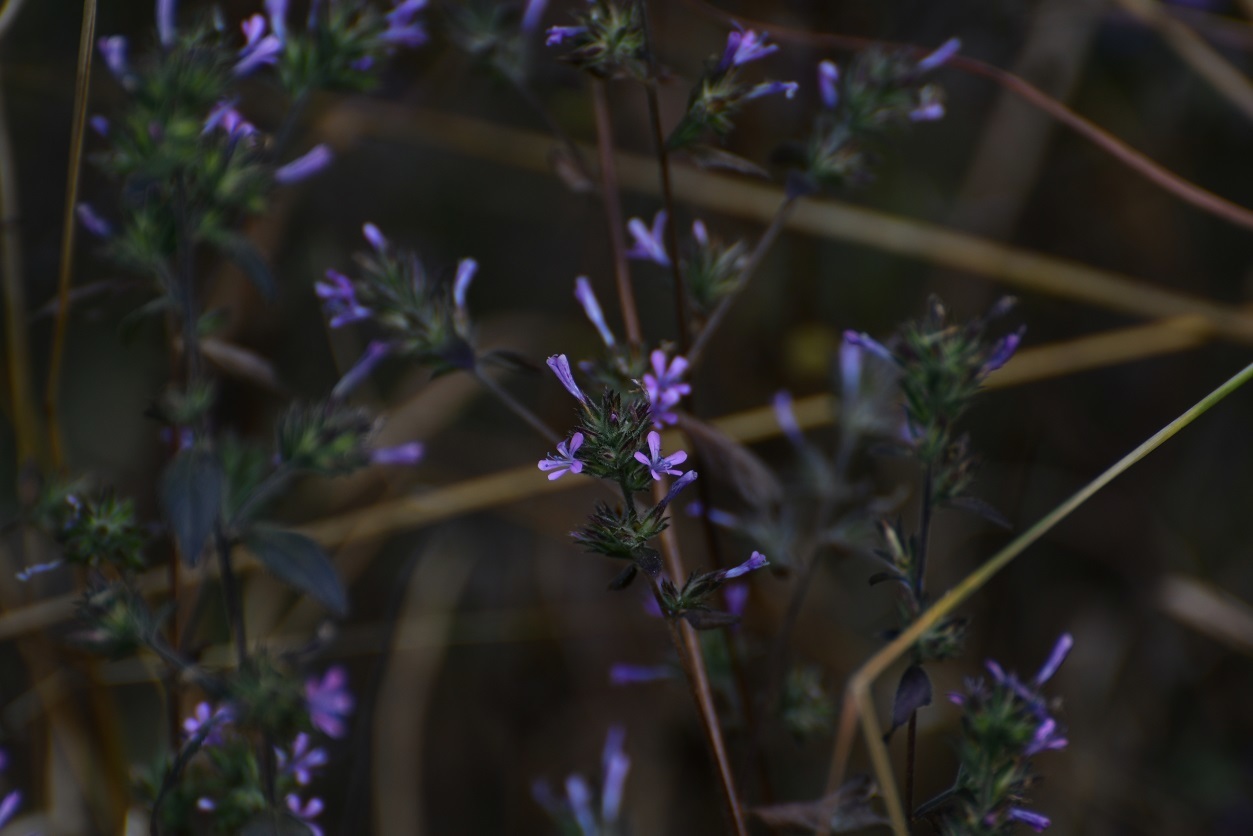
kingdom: Plantae
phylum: Tracheophyta
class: Magnoliopsida
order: Ericales
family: Polemoniaceae
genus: Loeselia
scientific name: Loeselia glandulosa
